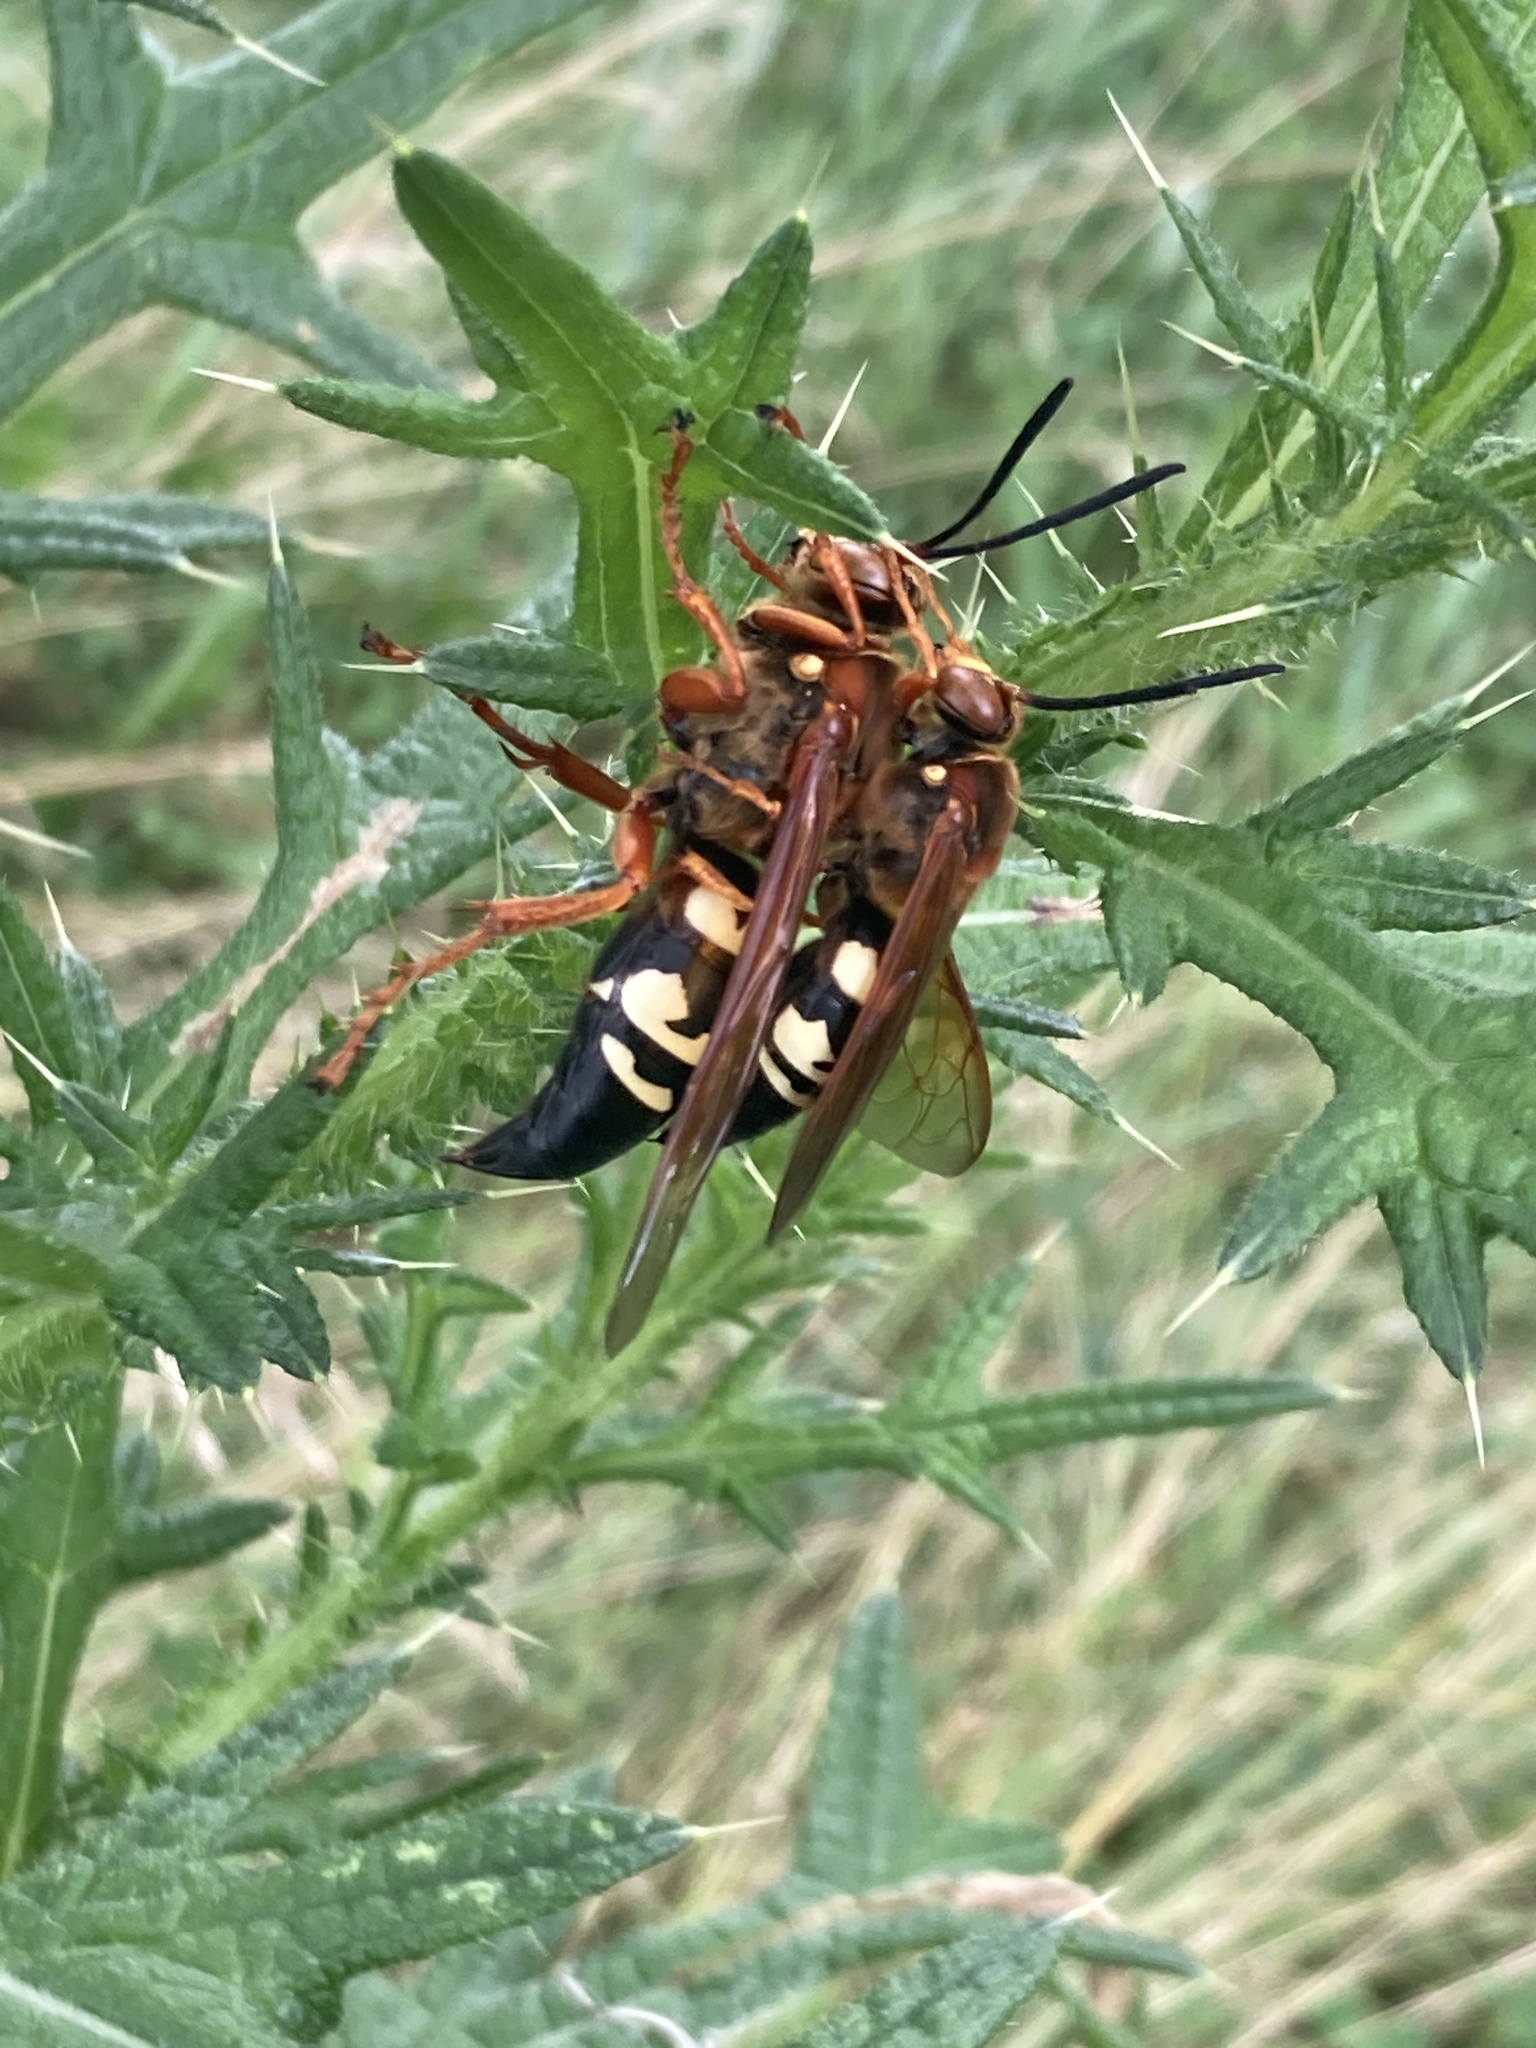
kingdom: Animalia
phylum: Arthropoda
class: Insecta
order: Hymenoptera
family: Crabronidae
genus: Sphecius
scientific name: Sphecius speciosus
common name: Cicada killer
